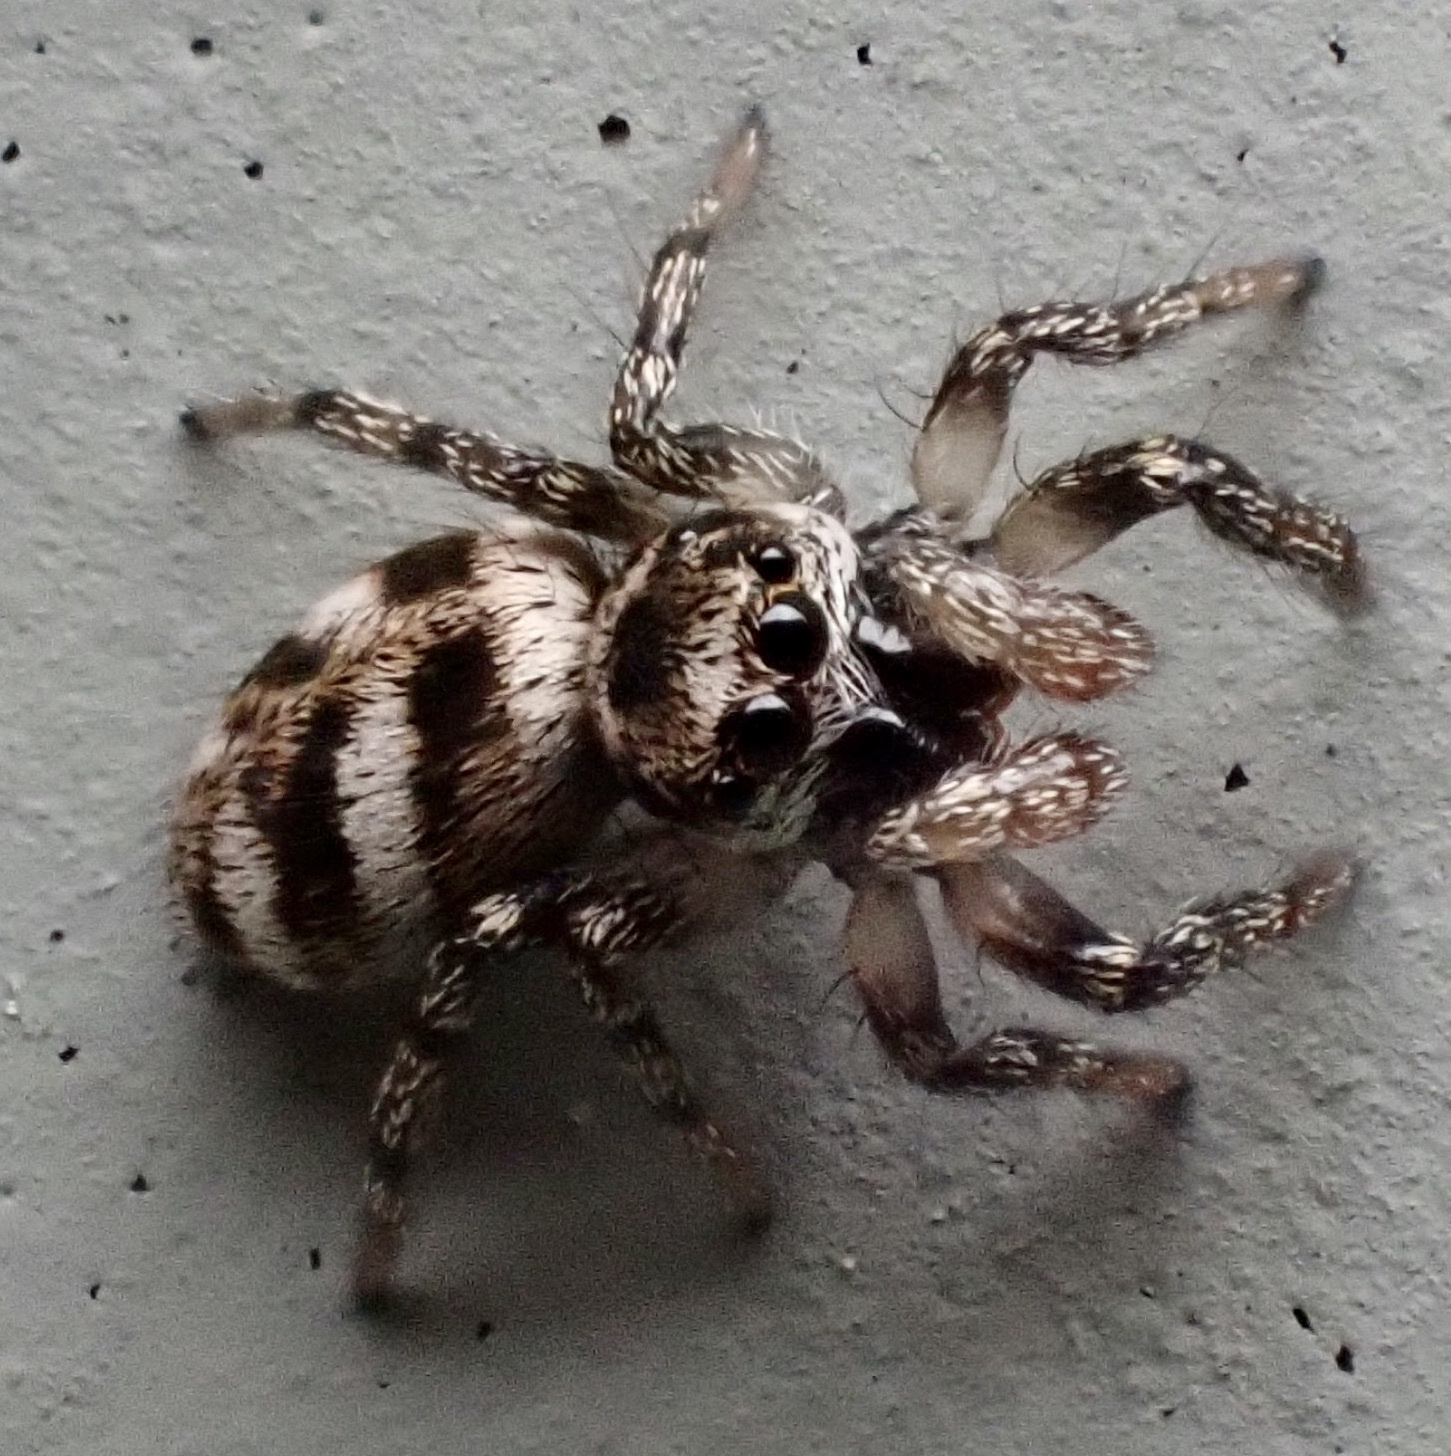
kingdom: Animalia
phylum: Arthropoda
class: Arachnida
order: Araneae
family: Salticidae
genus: Salticus
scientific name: Salticus scenicus
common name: Zebra jumper
